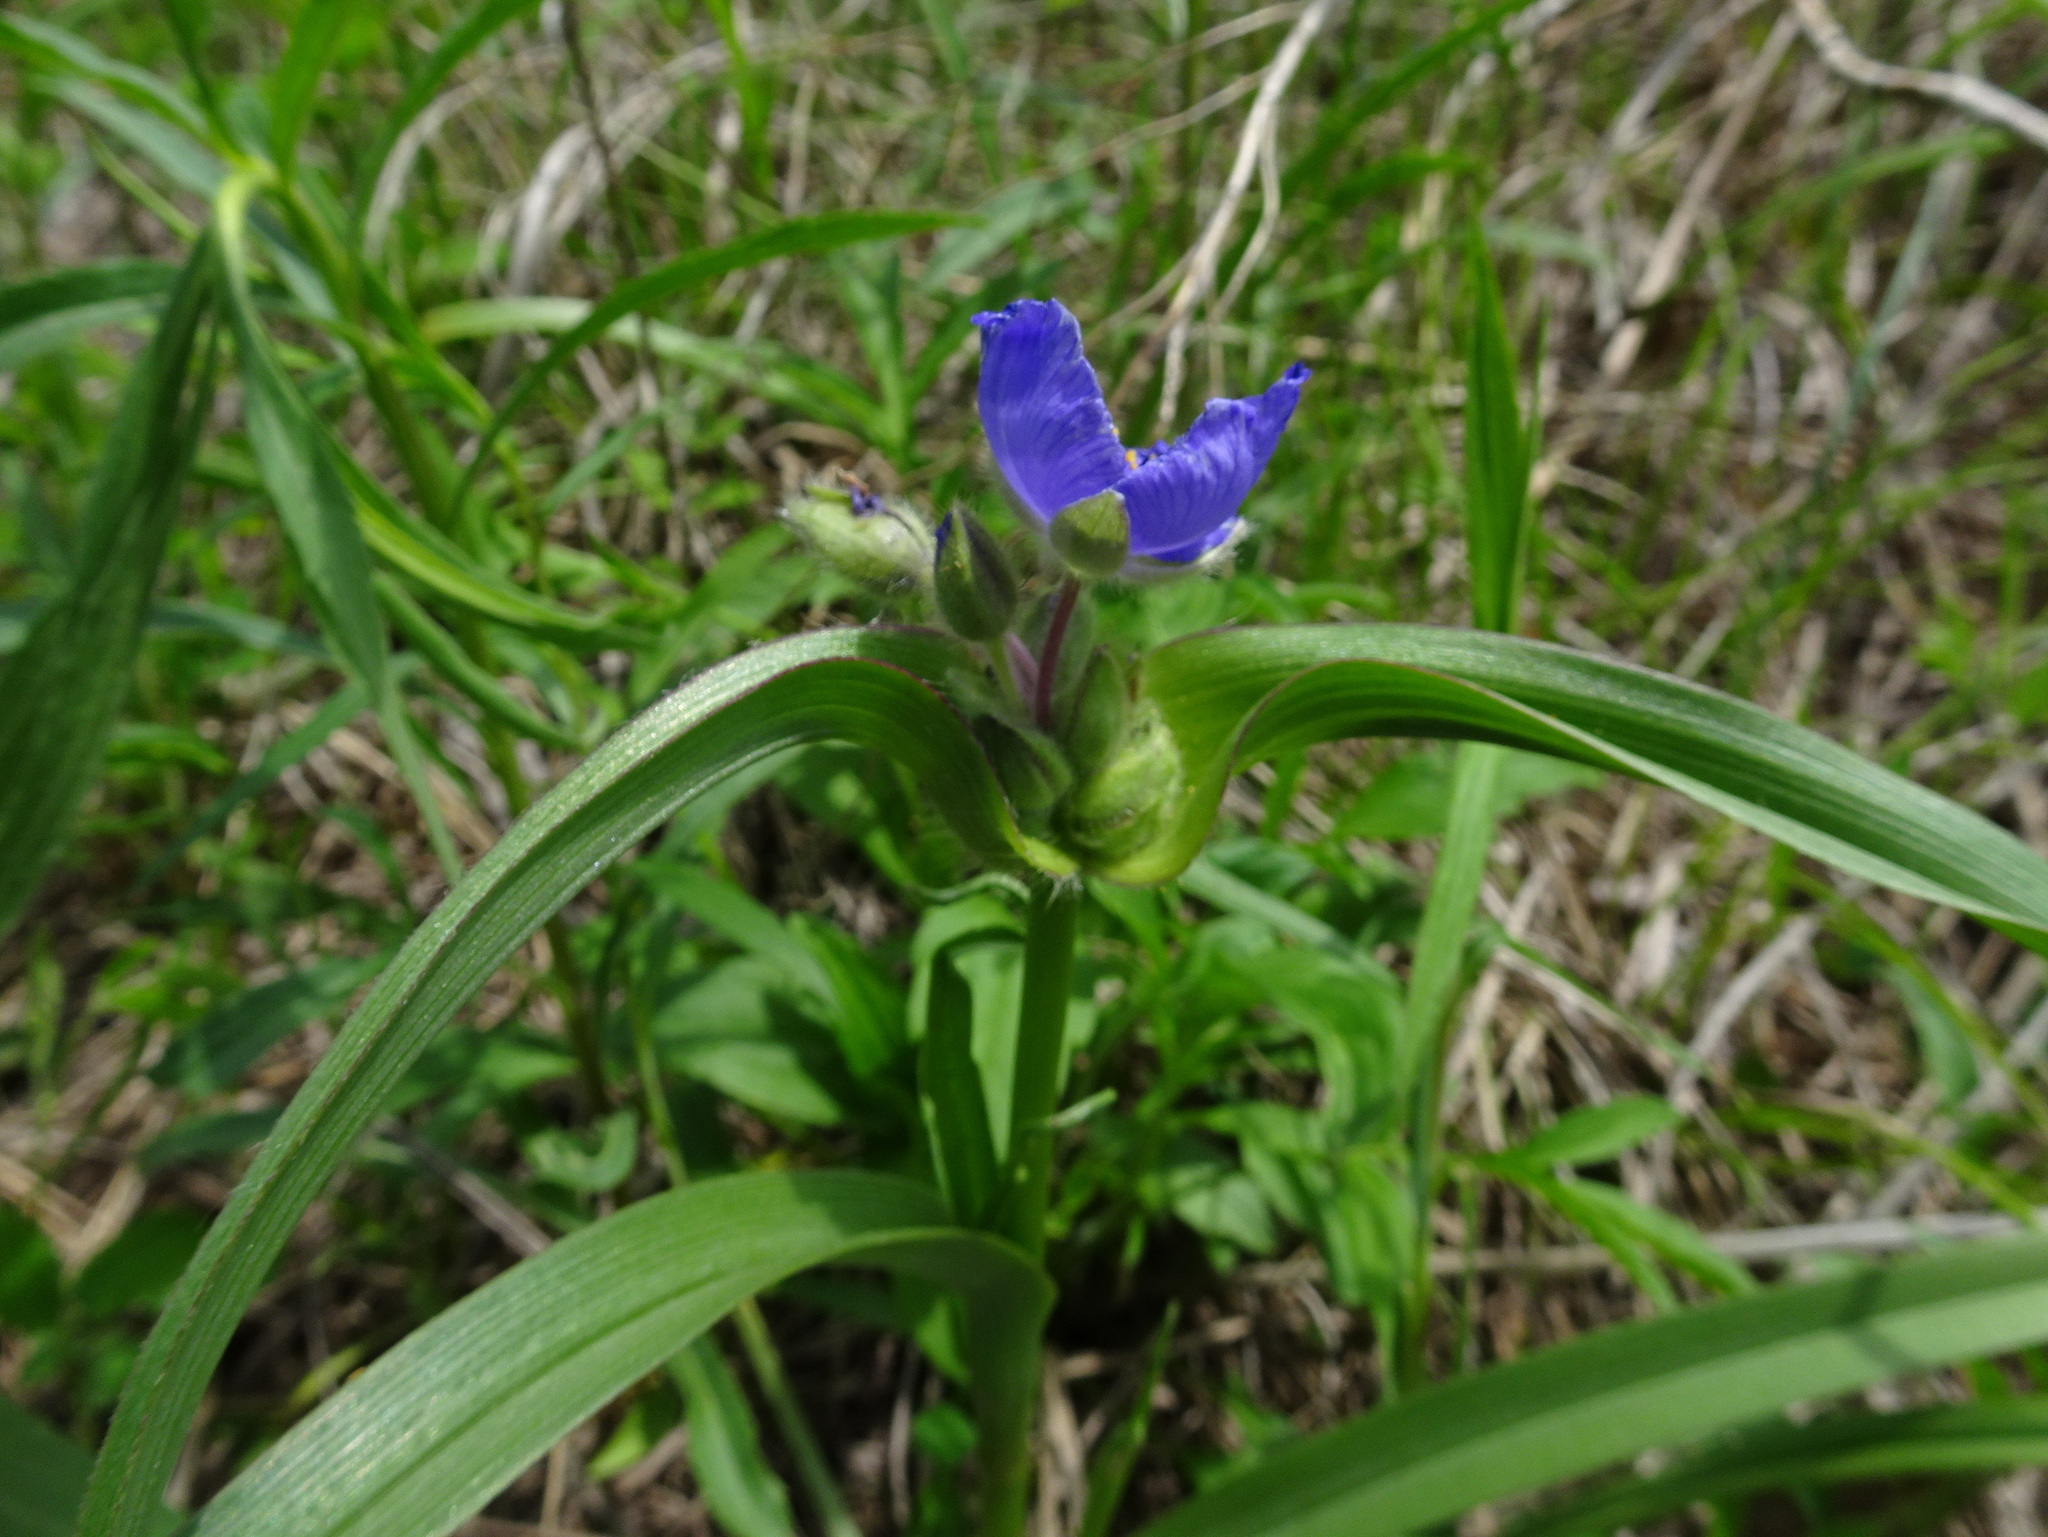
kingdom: Plantae
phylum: Tracheophyta
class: Liliopsida
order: Commelinales
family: Commelinaceae
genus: Tradescantia
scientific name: Tradescantia bracteata
